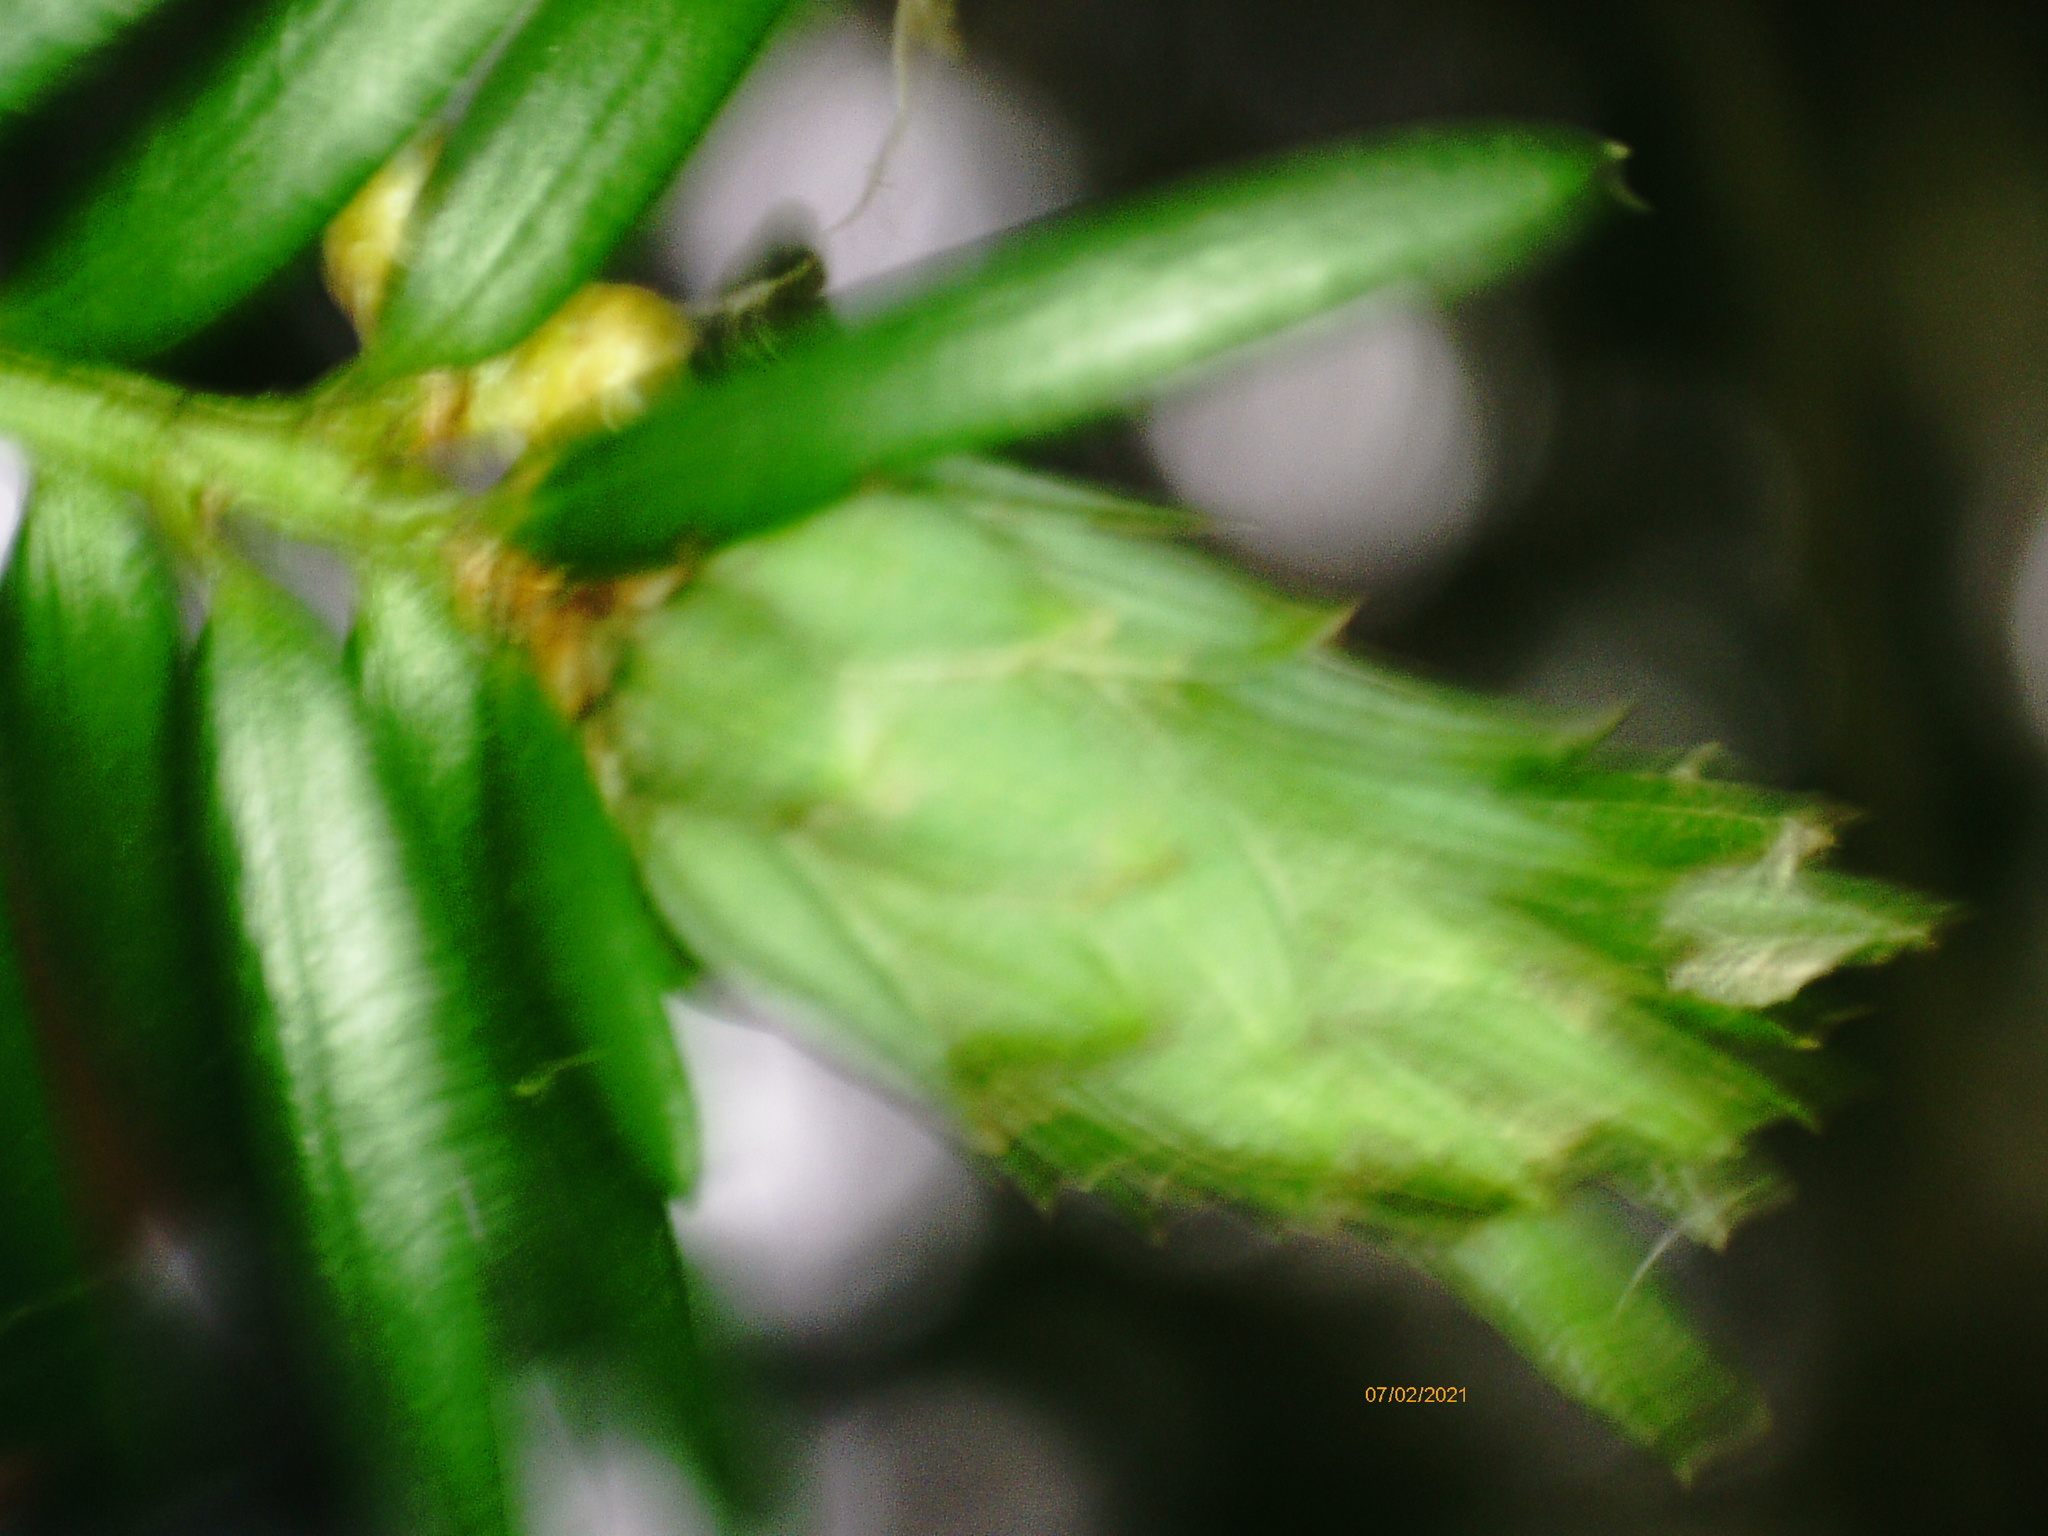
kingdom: Animalia
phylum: Arthropoda
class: Insecta
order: Diptera
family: Cecidomyiidae
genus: Taxomyia
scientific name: Taxomyia taxi
